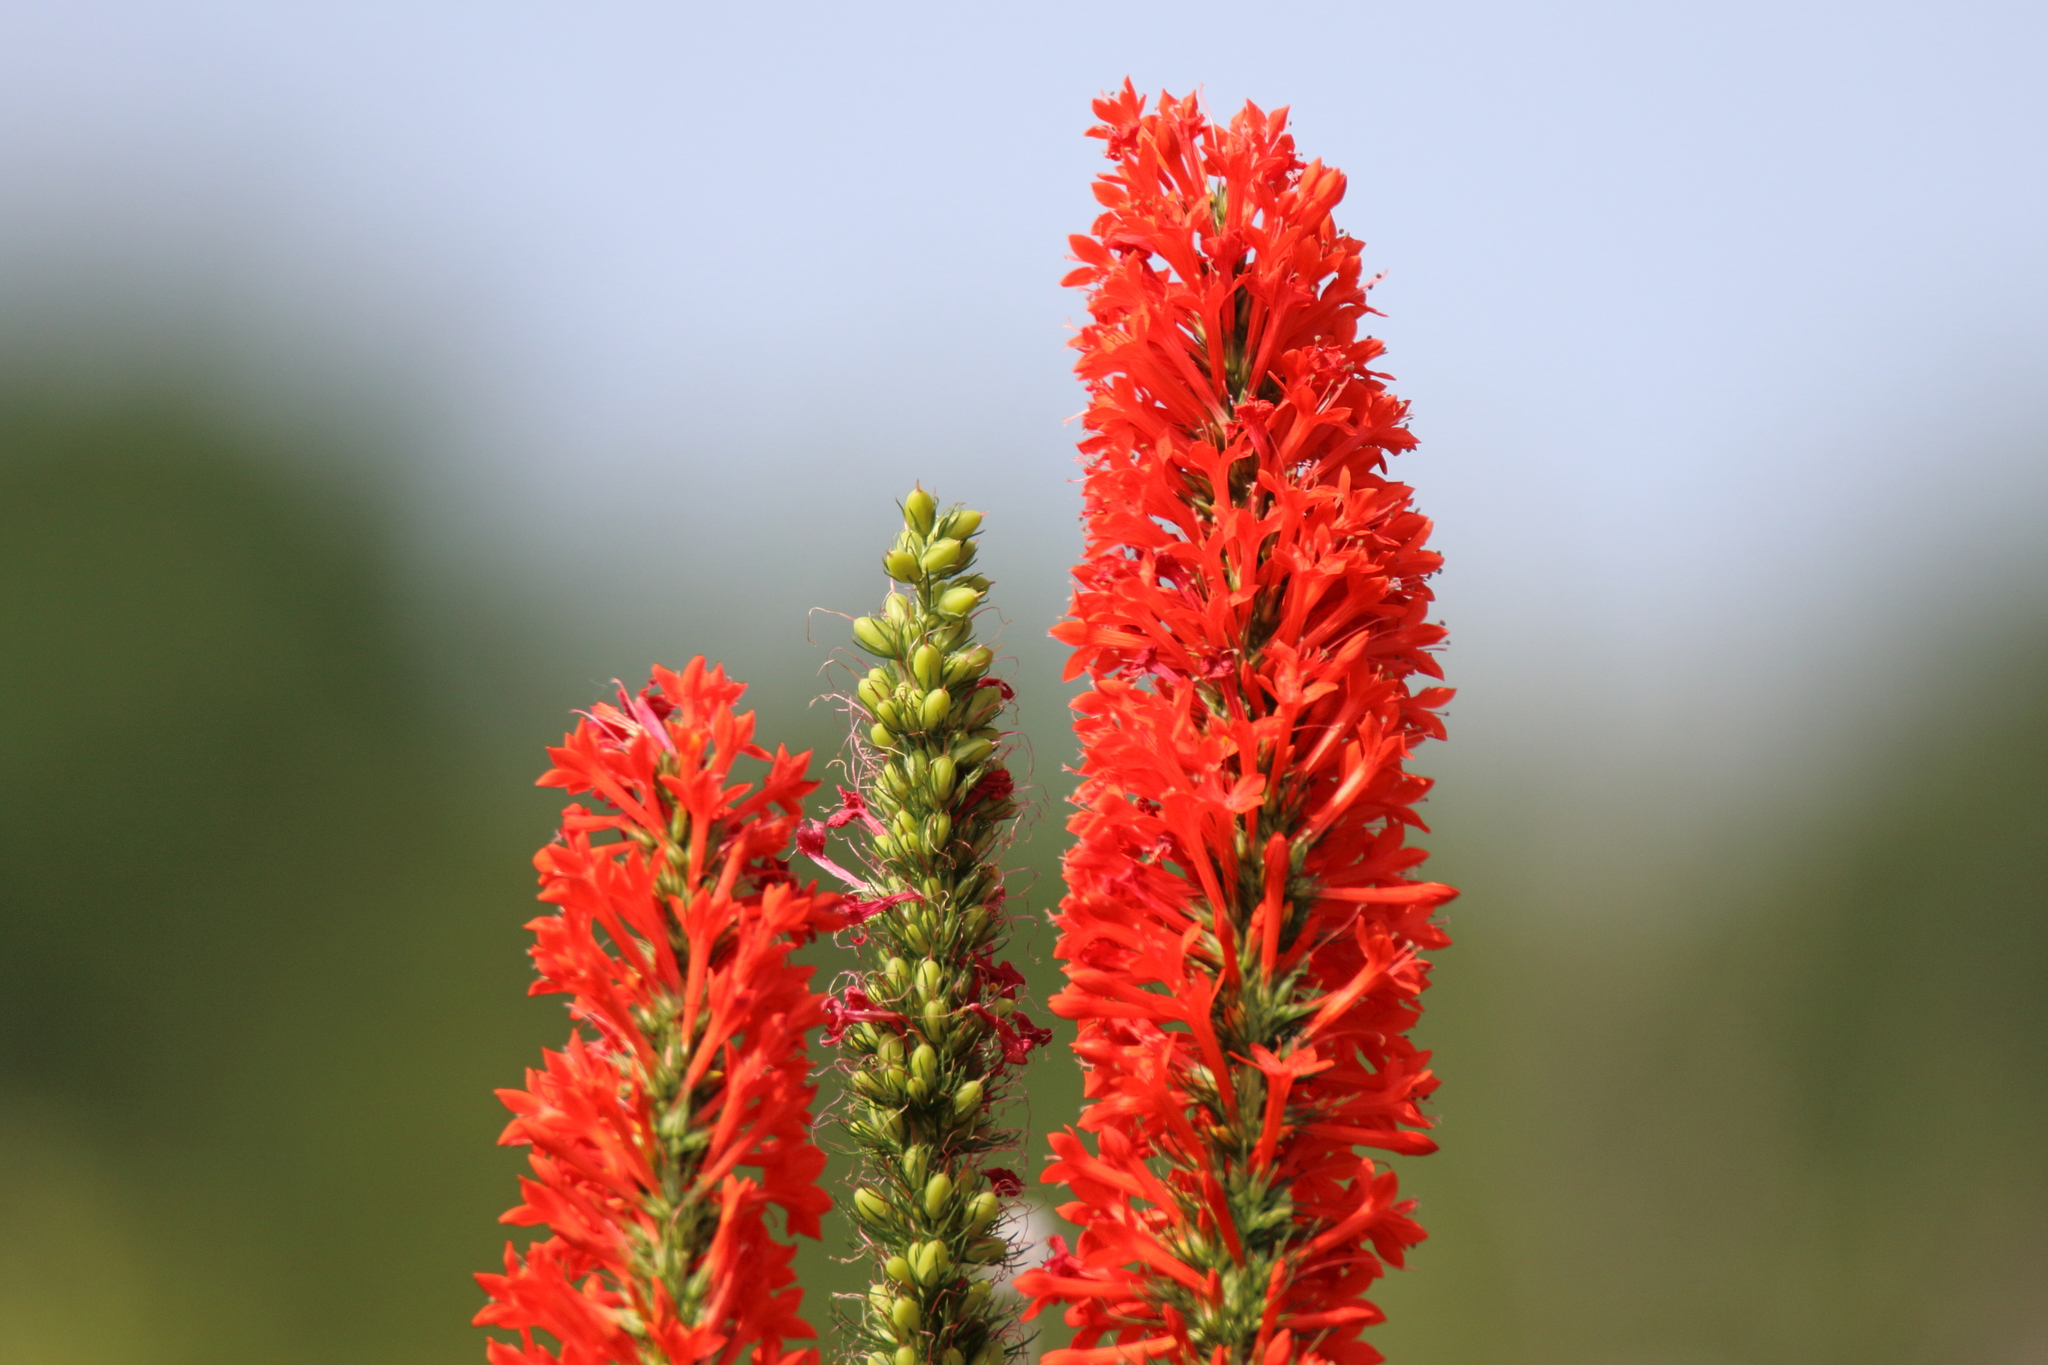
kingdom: Plantae
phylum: Tracheophyta
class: Magnoliopsida
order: Ericales
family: Polemoniaceae
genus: Ipomopsis
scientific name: Ipomopsis rubra
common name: Skyrocket
